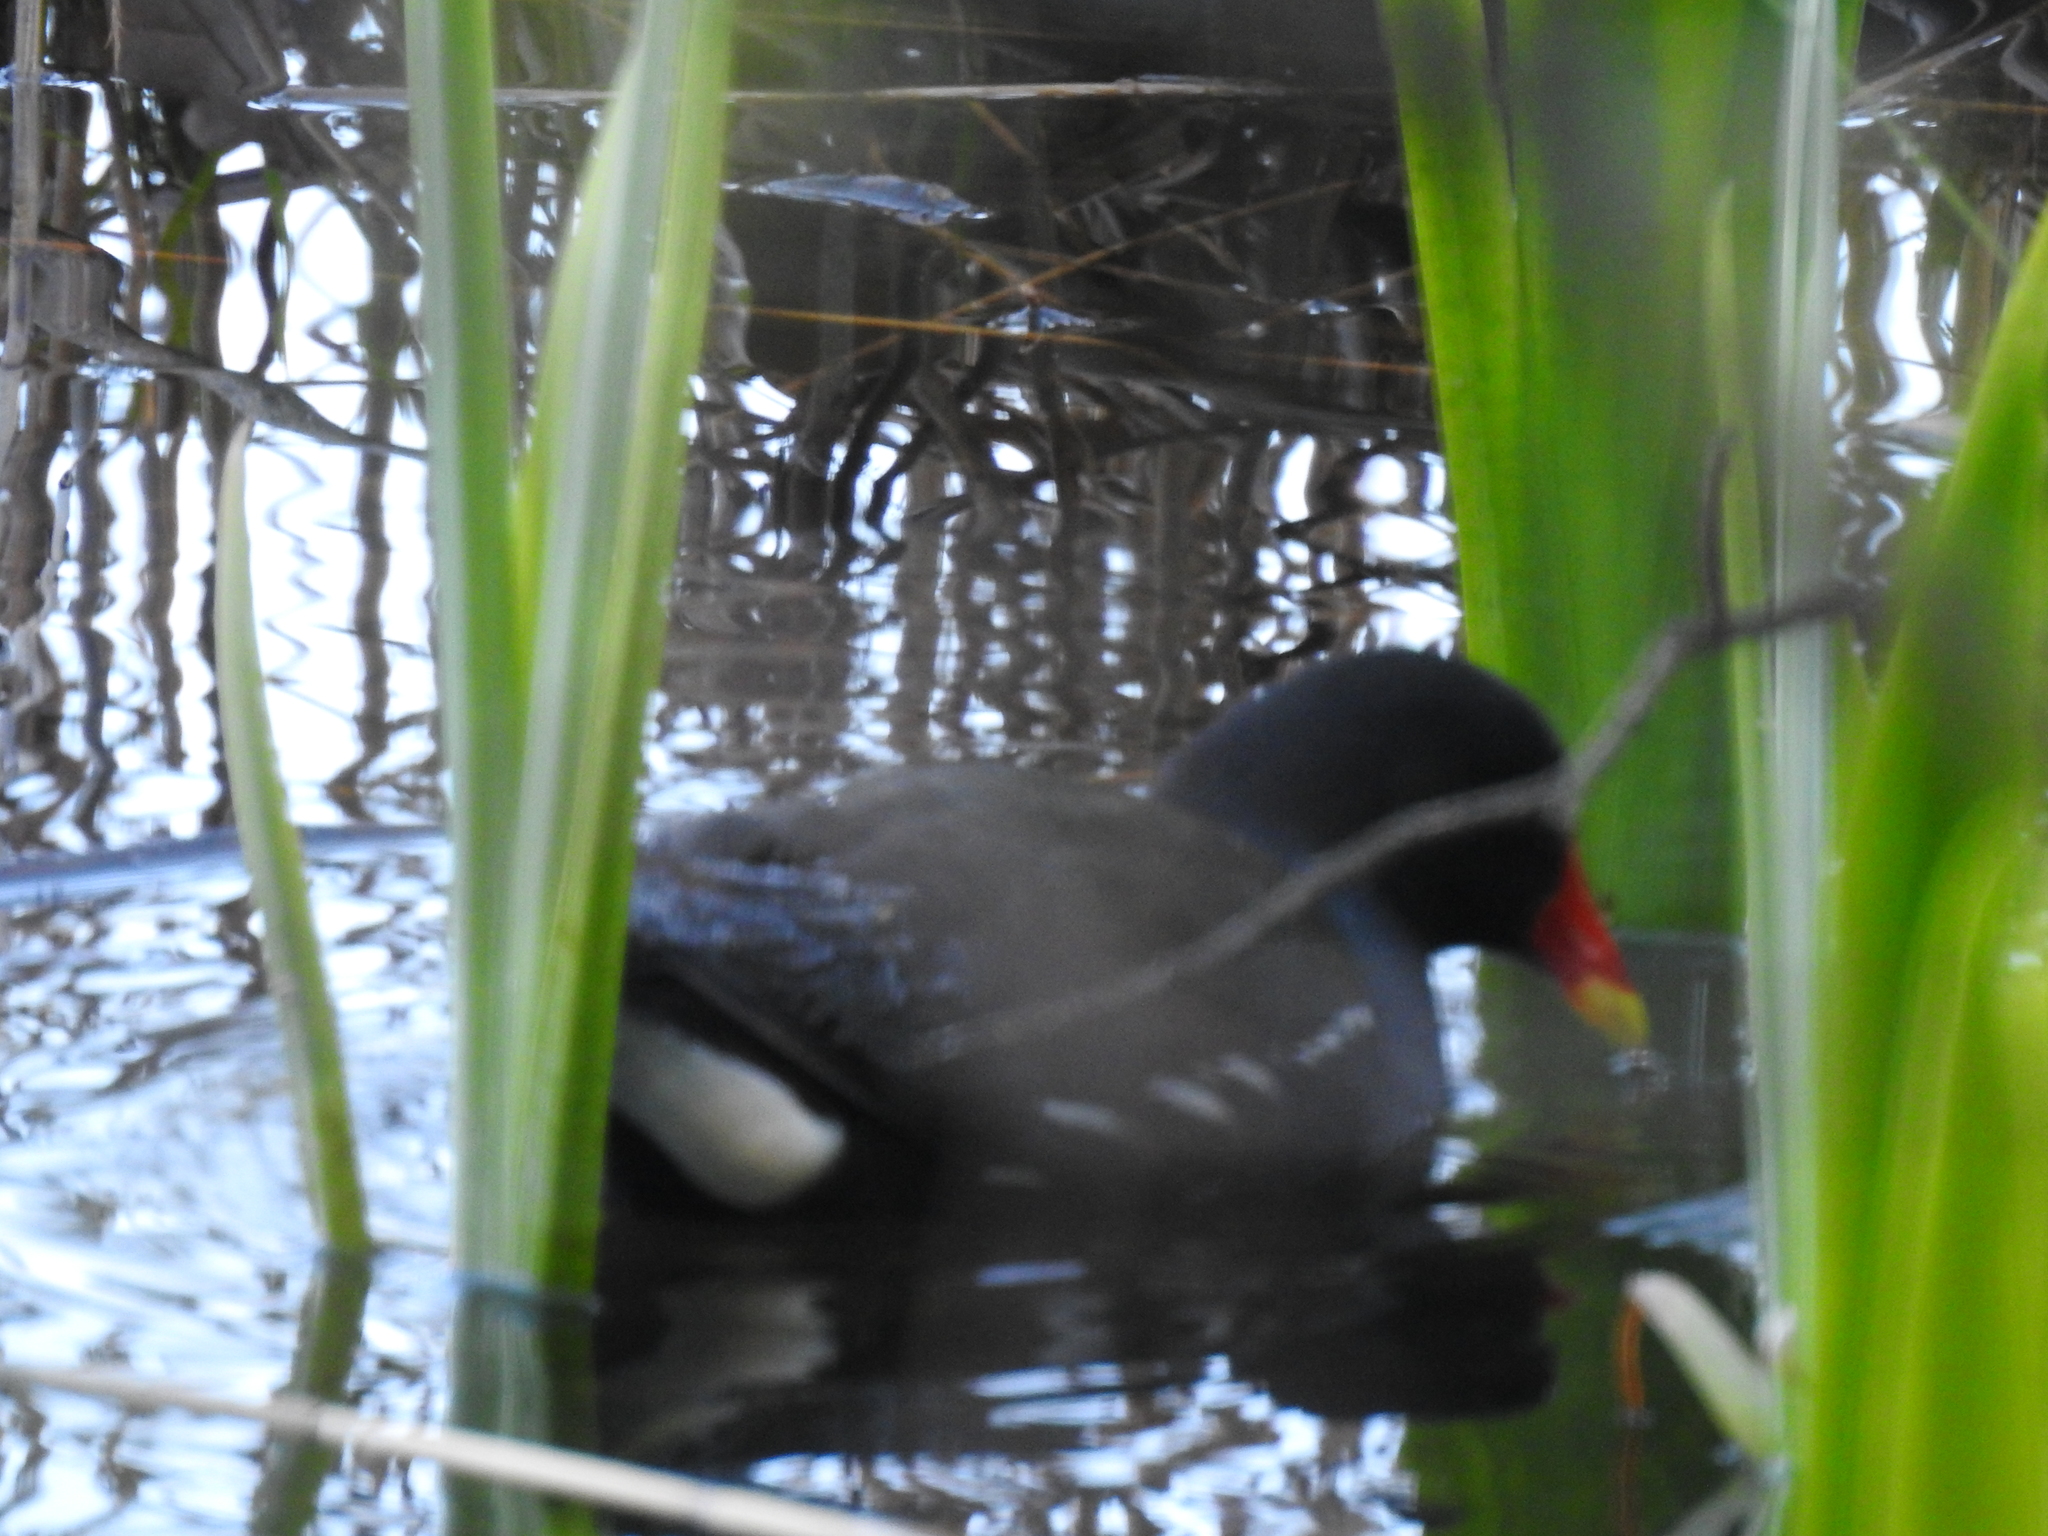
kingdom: Animalia
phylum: Chordata
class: Aves
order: Gruiformes
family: Rallidae
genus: Gallinula
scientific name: Gallinula chloropus
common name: Common moorhen
